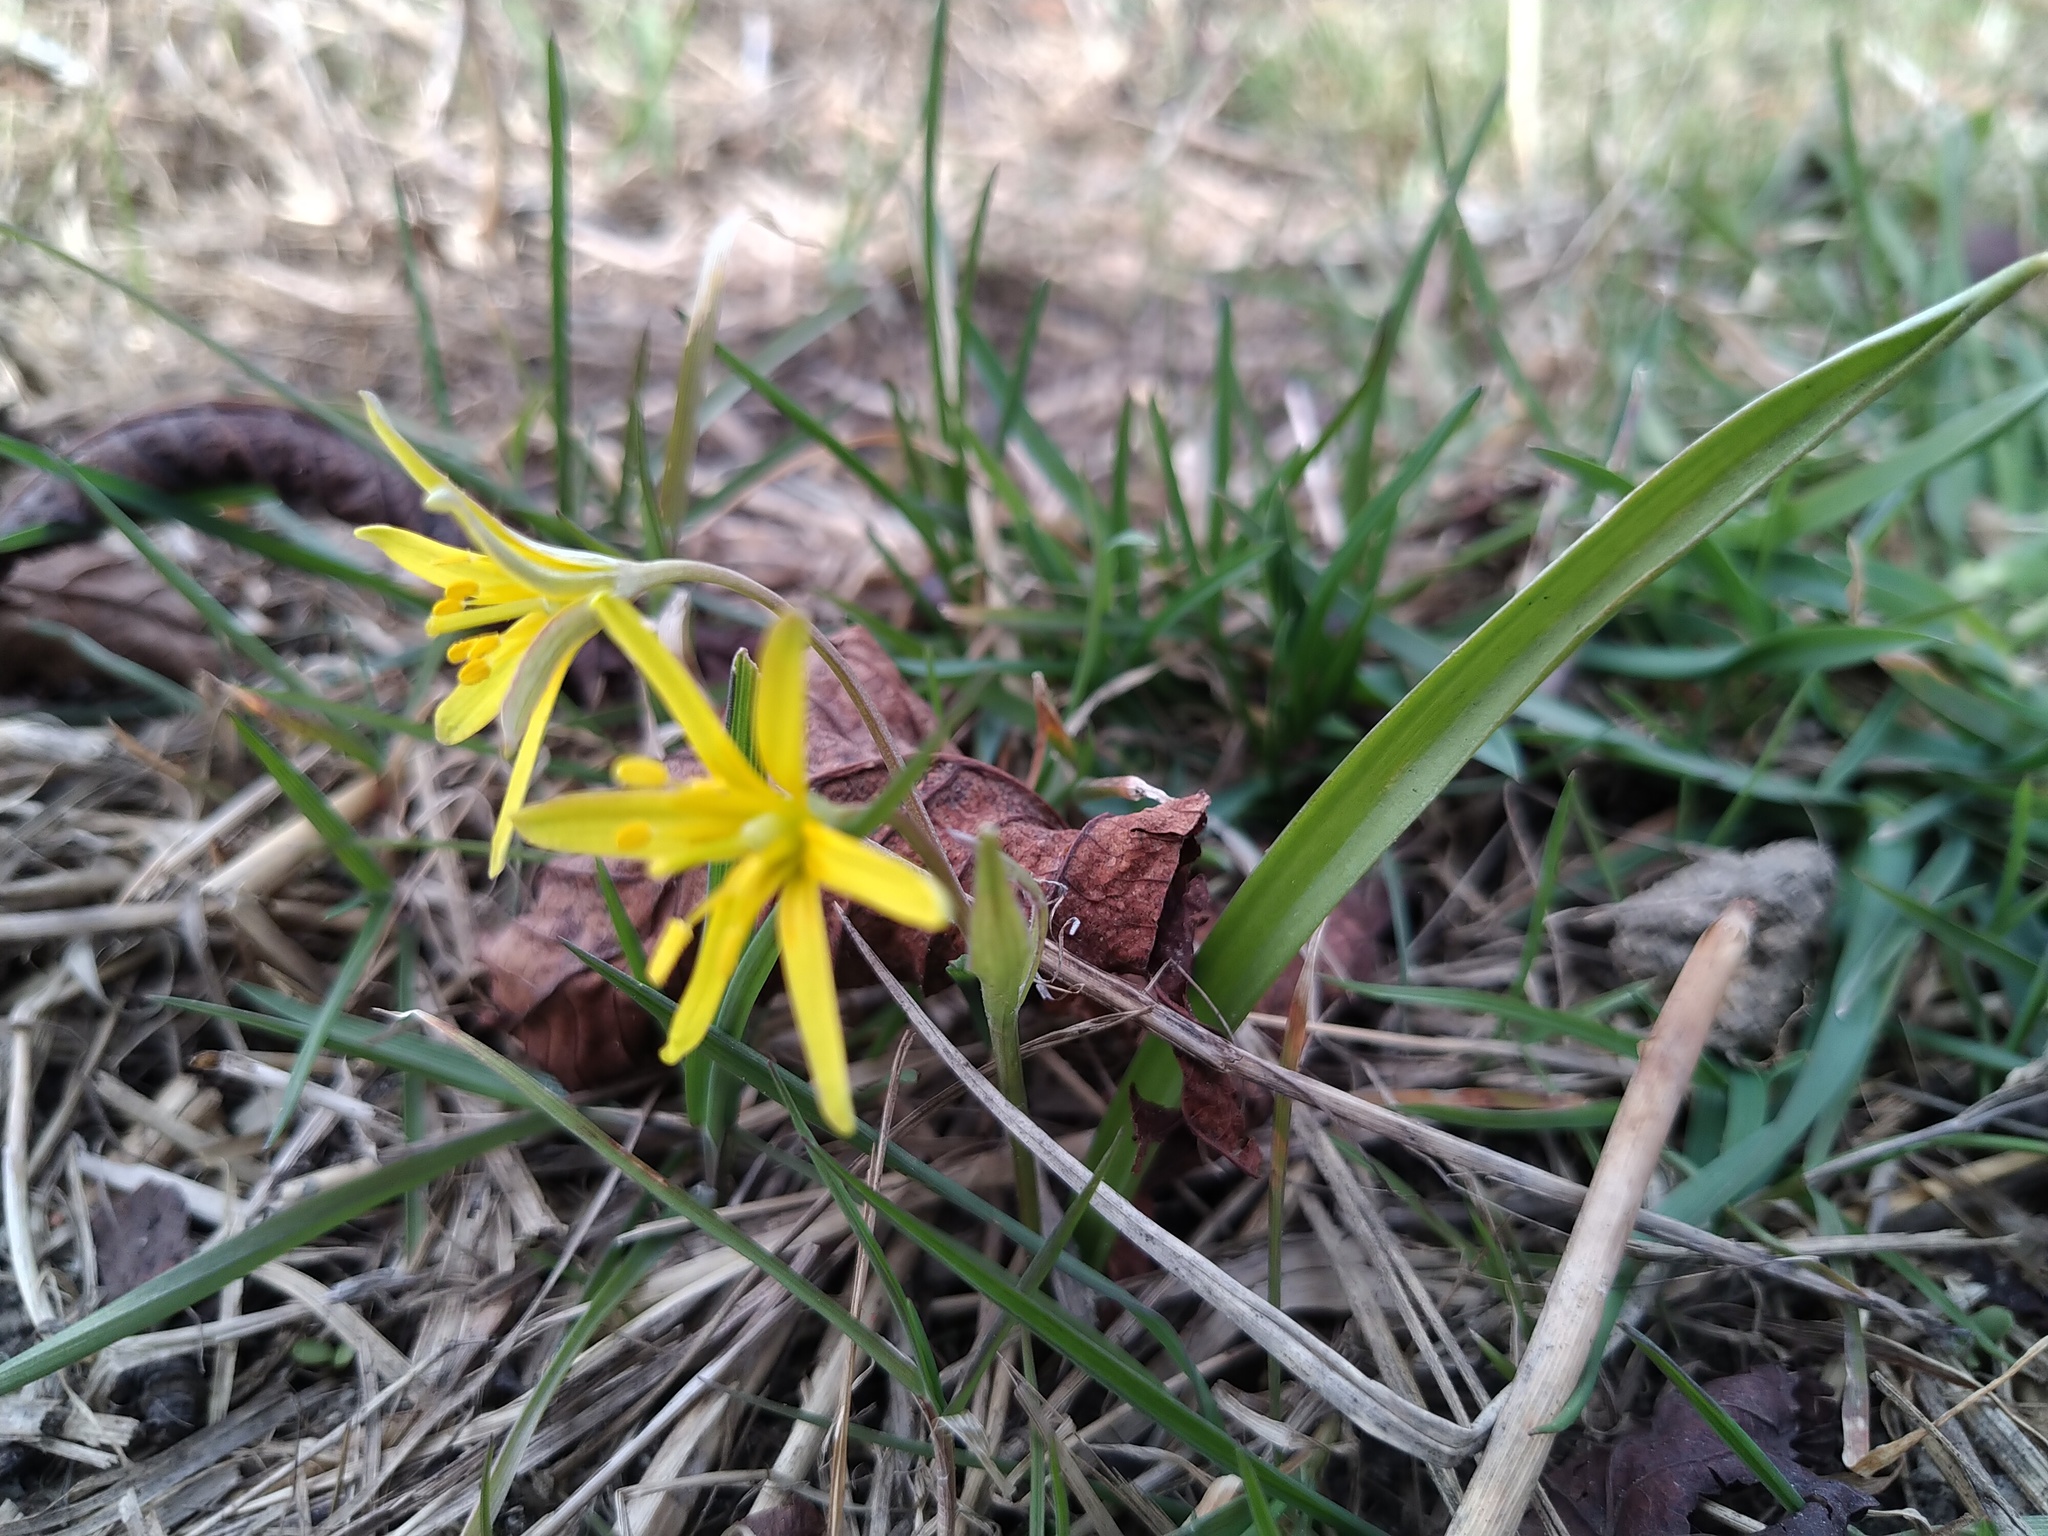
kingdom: Plantae
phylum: Tracheophyta
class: Liliopsida
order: Liliales
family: Liliaceae
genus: Gagea
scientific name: Gagea lutea
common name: Yellow star-of-bethlehem
